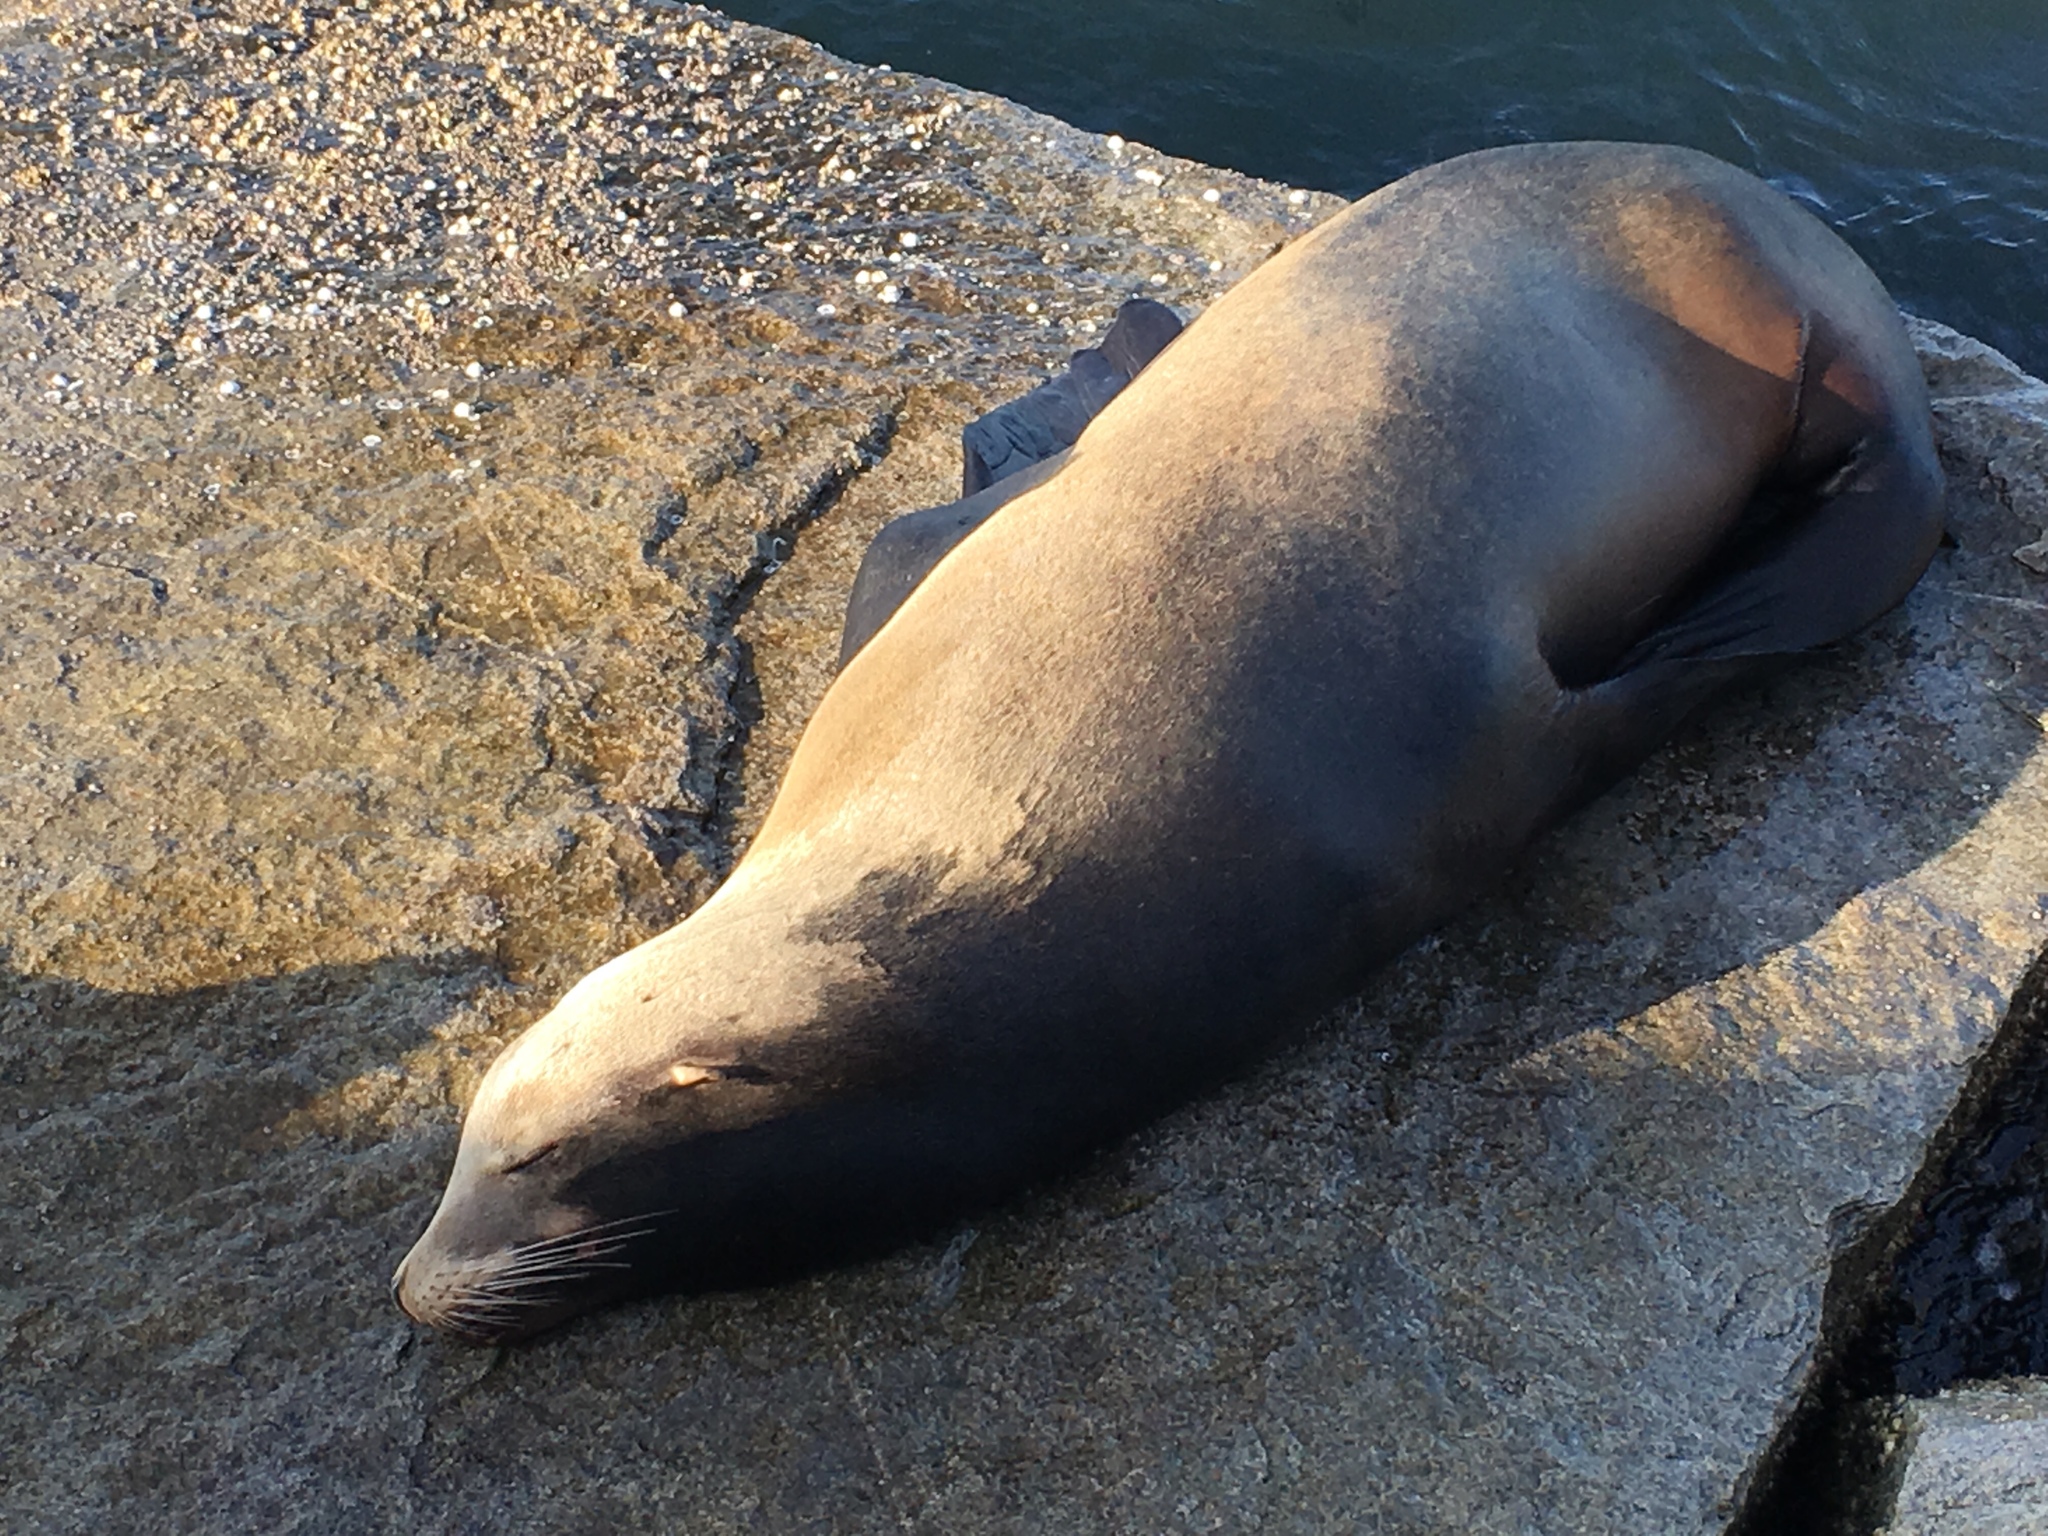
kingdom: Animalia
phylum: Chordata
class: Mammalia
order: Carnivora
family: Otariidae
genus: Zalophus
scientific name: Zalophus californianus
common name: California sea lion
